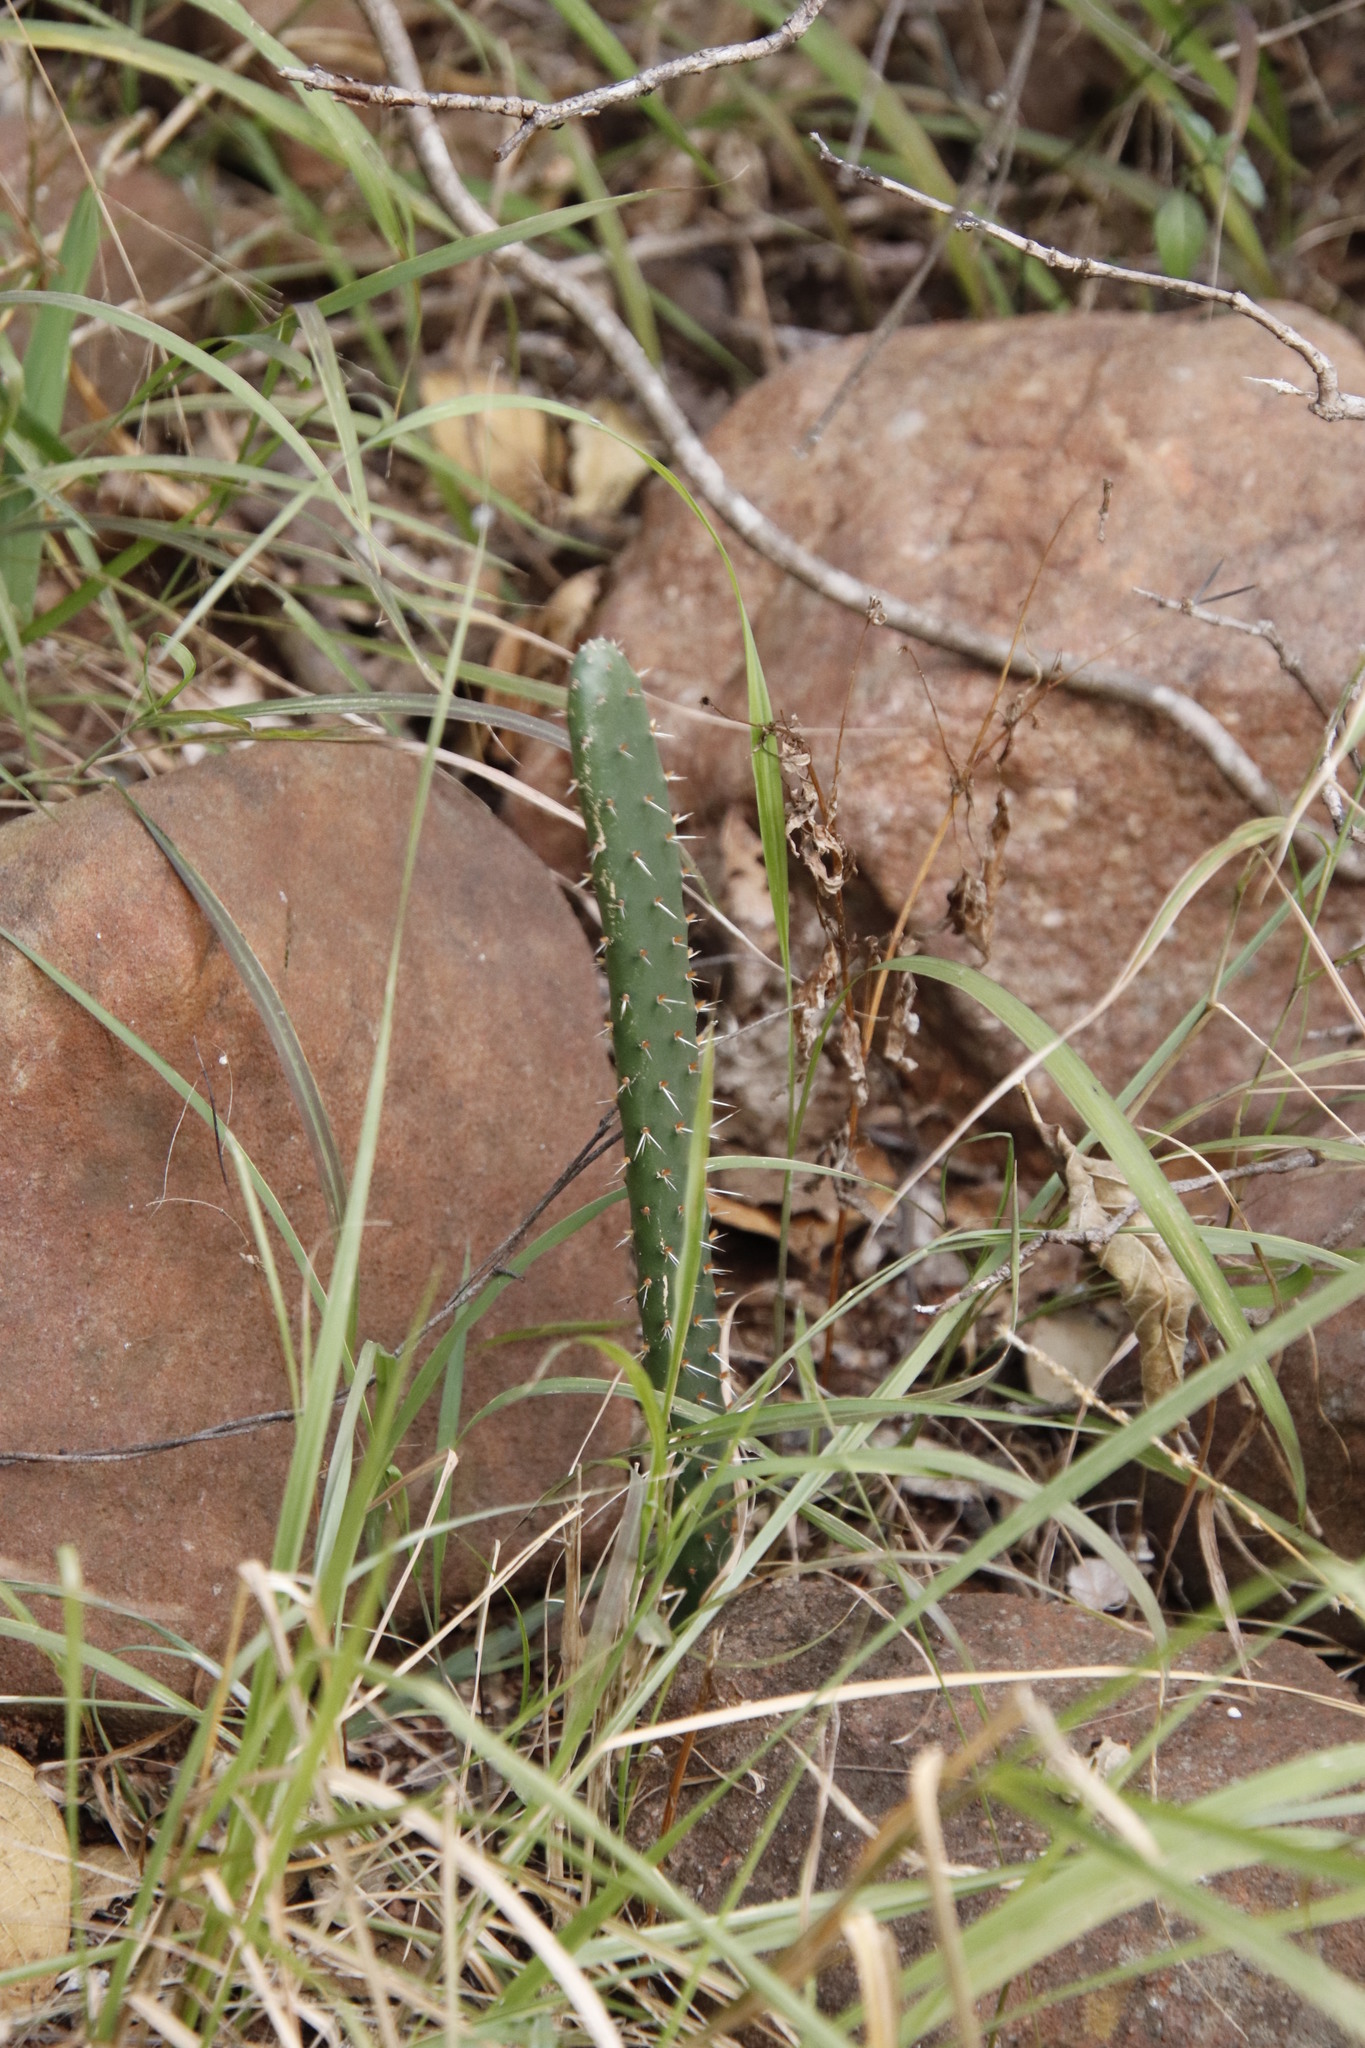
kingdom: Plantae
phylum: Tracheophyta
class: Magnoliopsida
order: Caryophyllales
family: Cactaceae
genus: Opuntia
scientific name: Opuntia ficus-indica
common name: Barbary fig
